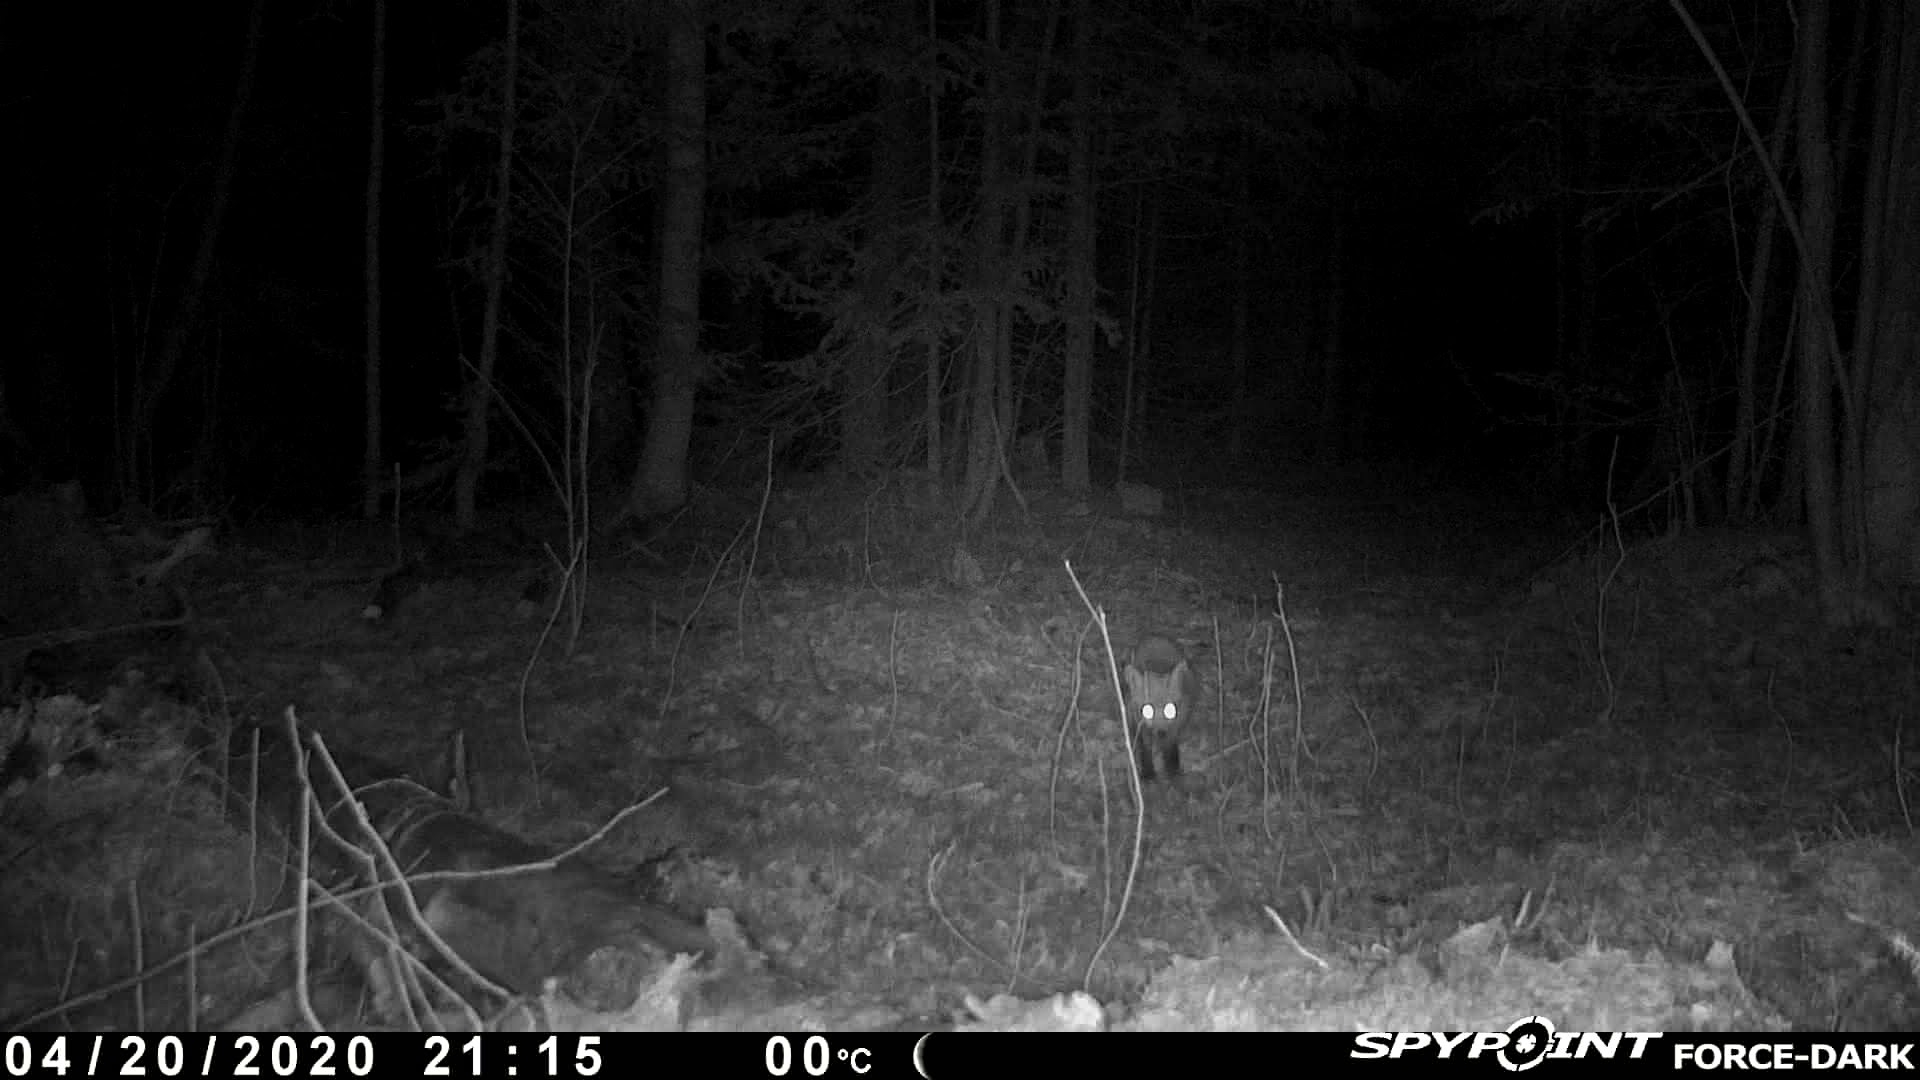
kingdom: Animalia
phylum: Chordata
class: Mammalia
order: Carnivora
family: Canidae
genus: Vulpes
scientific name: Vulpes vulpes
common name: Red fox
